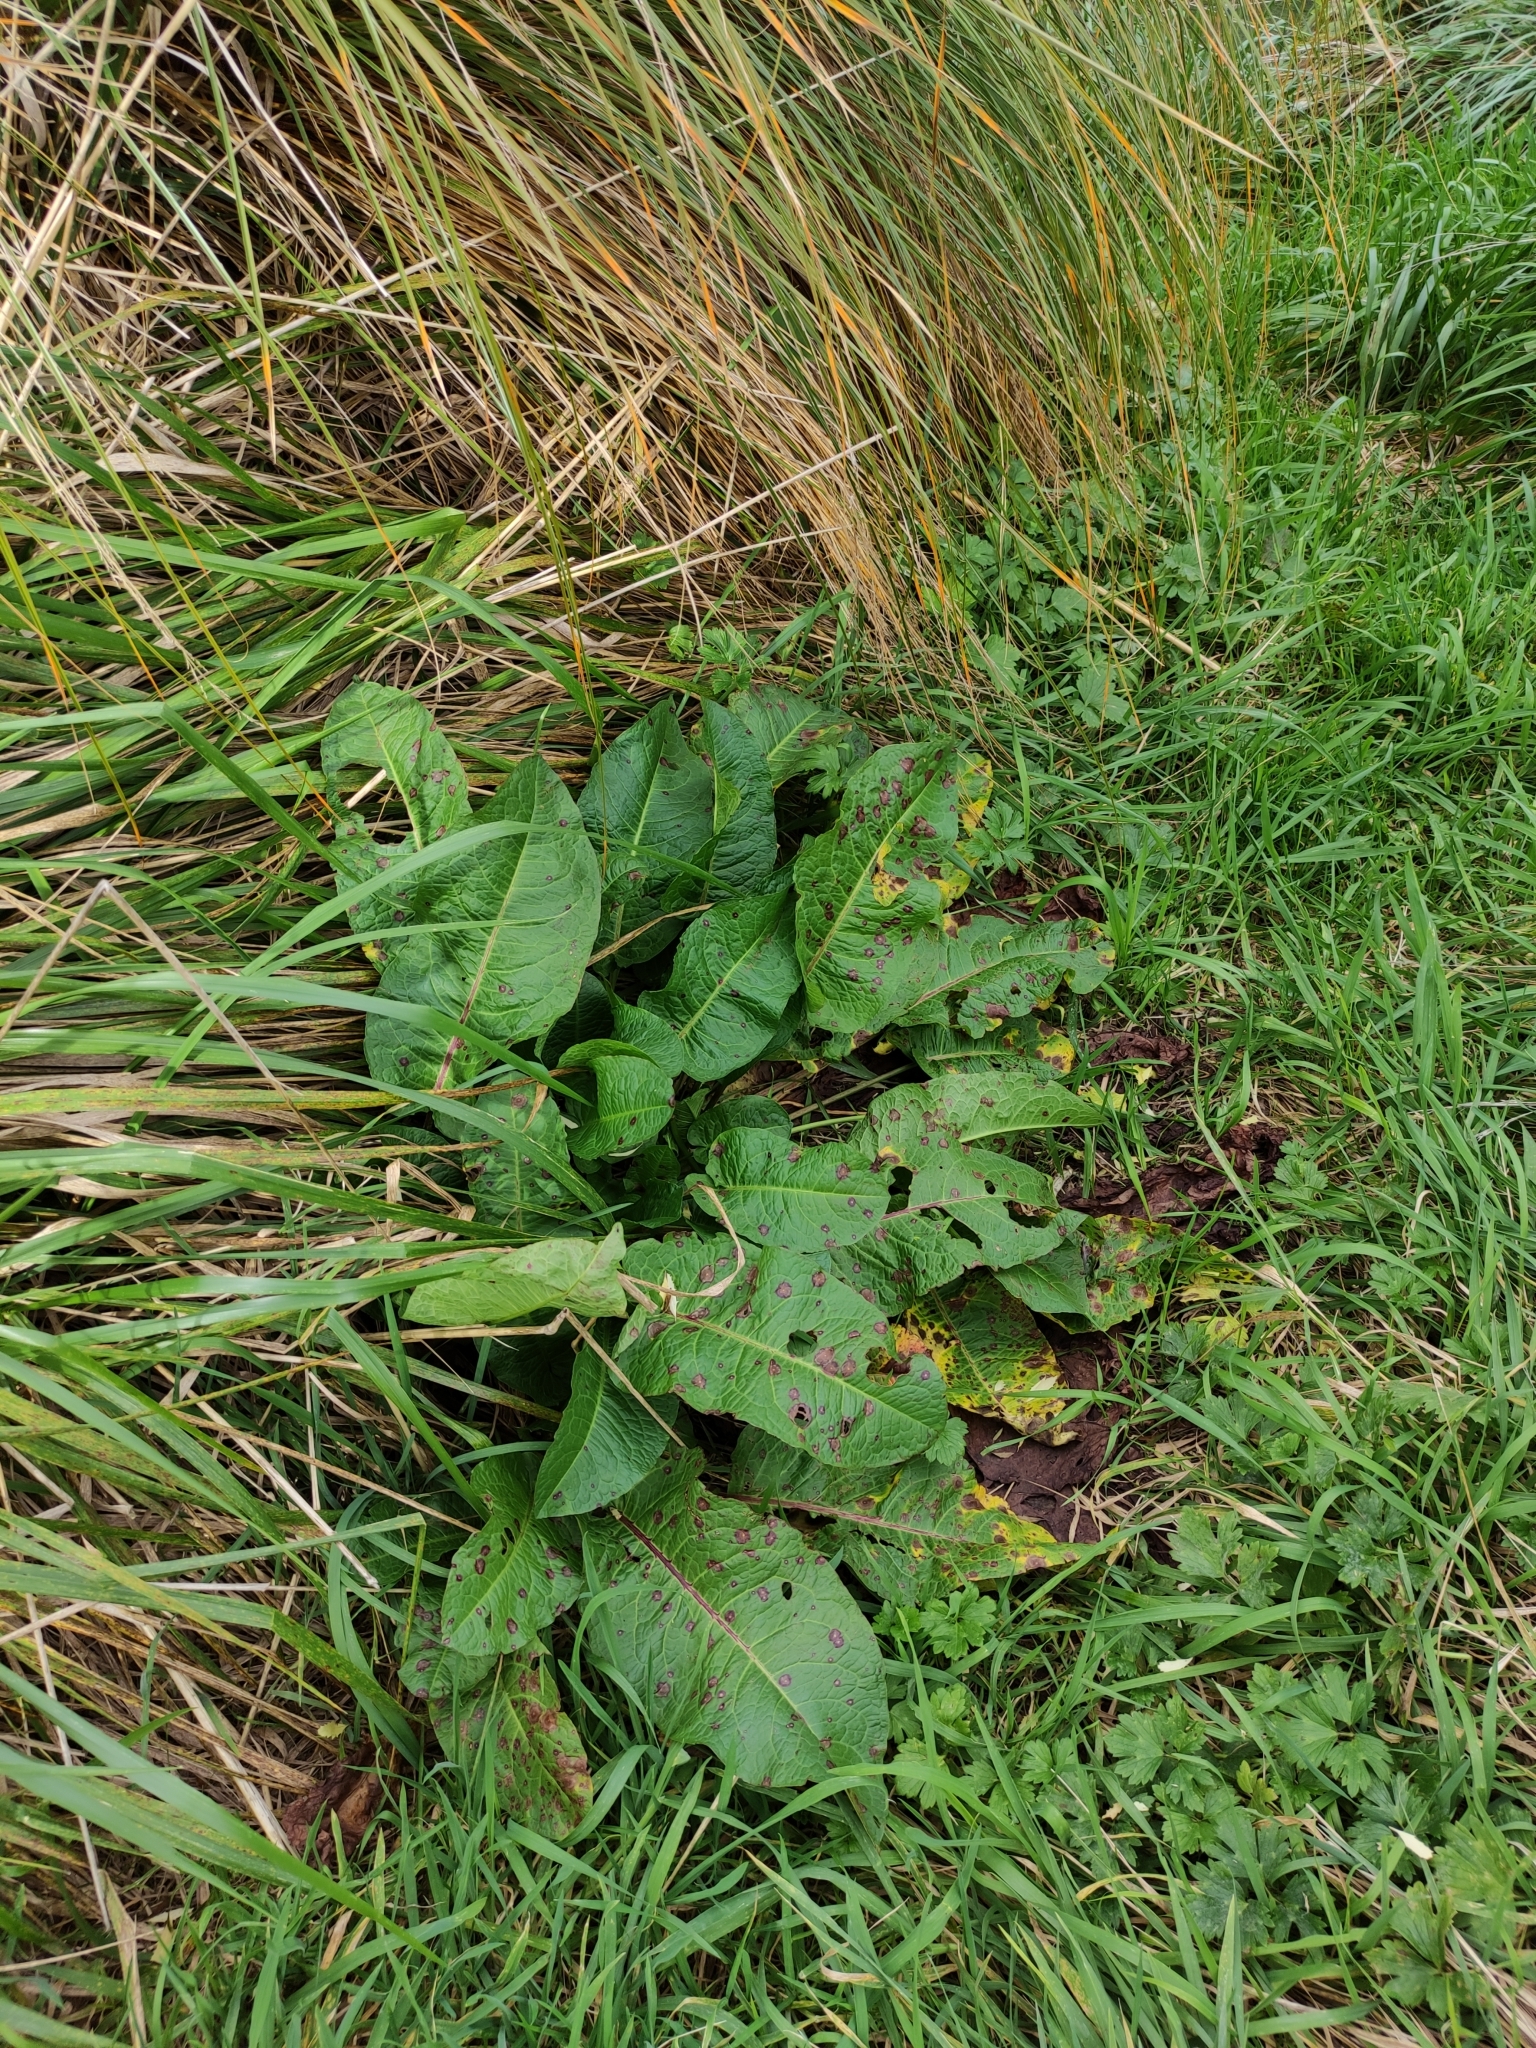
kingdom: Plantae
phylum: Tracheophyta
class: Magnoliopsida
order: Caryophyllales
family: Polygonaceae
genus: Rumex
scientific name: Rumex obtusifolius
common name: Bitter dock
